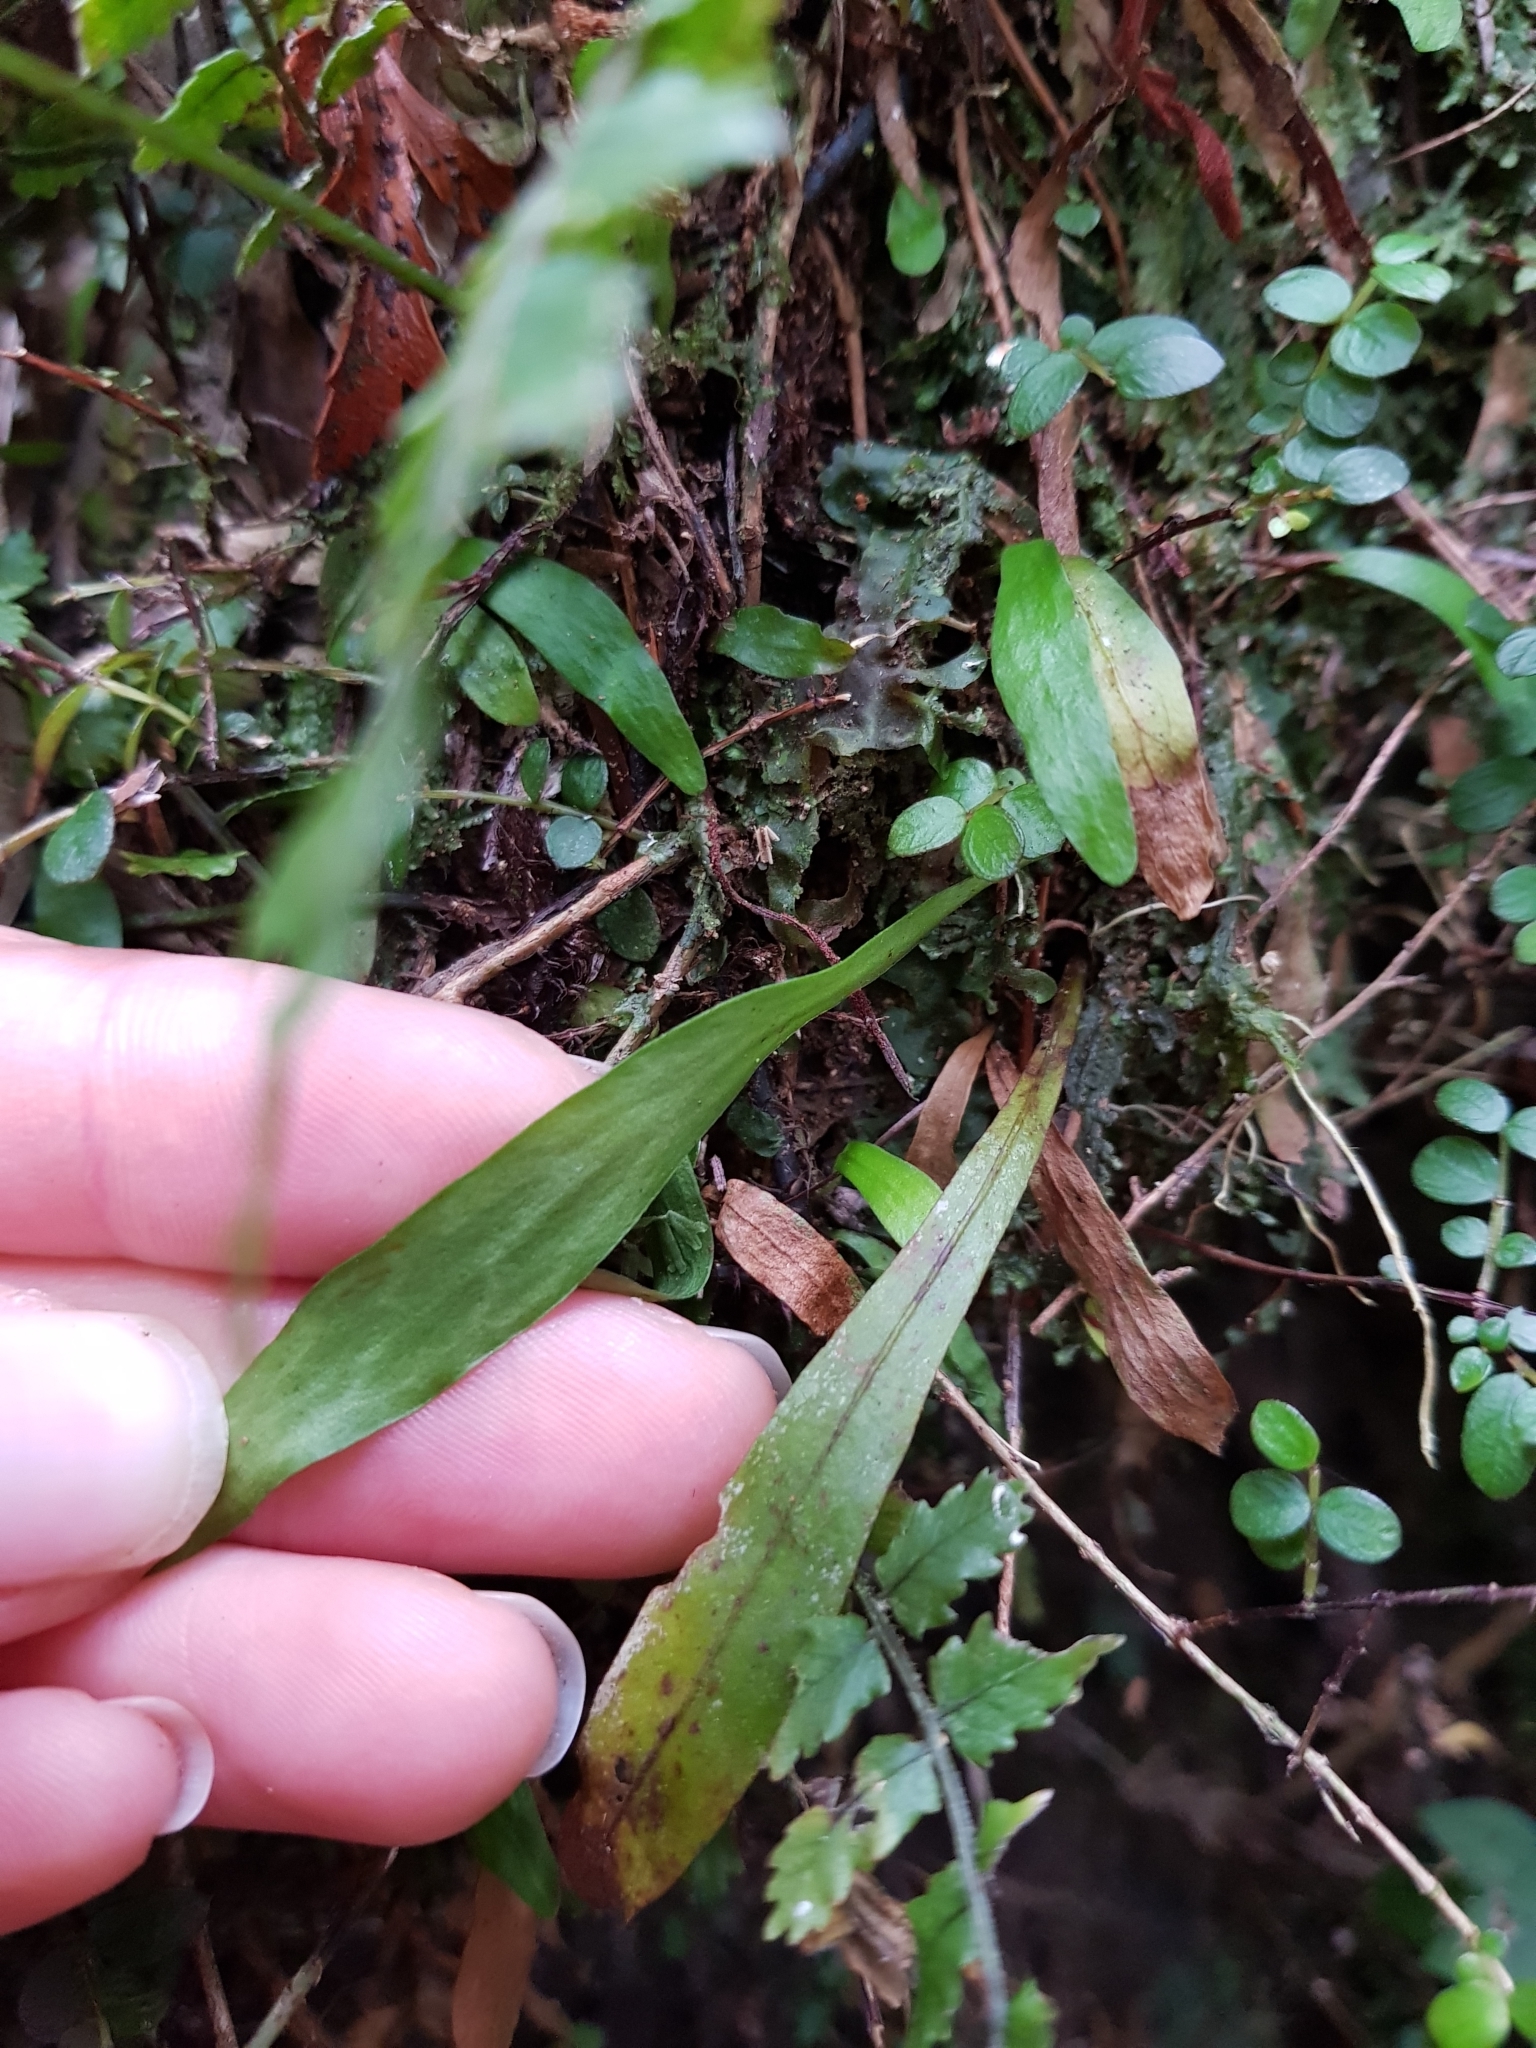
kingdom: Plantae
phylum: Tracheophyta
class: Polypodiopsida
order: Polypodiales
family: Polypodiaceae
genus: Loxogramme
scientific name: Loxogramme dictyopteris
